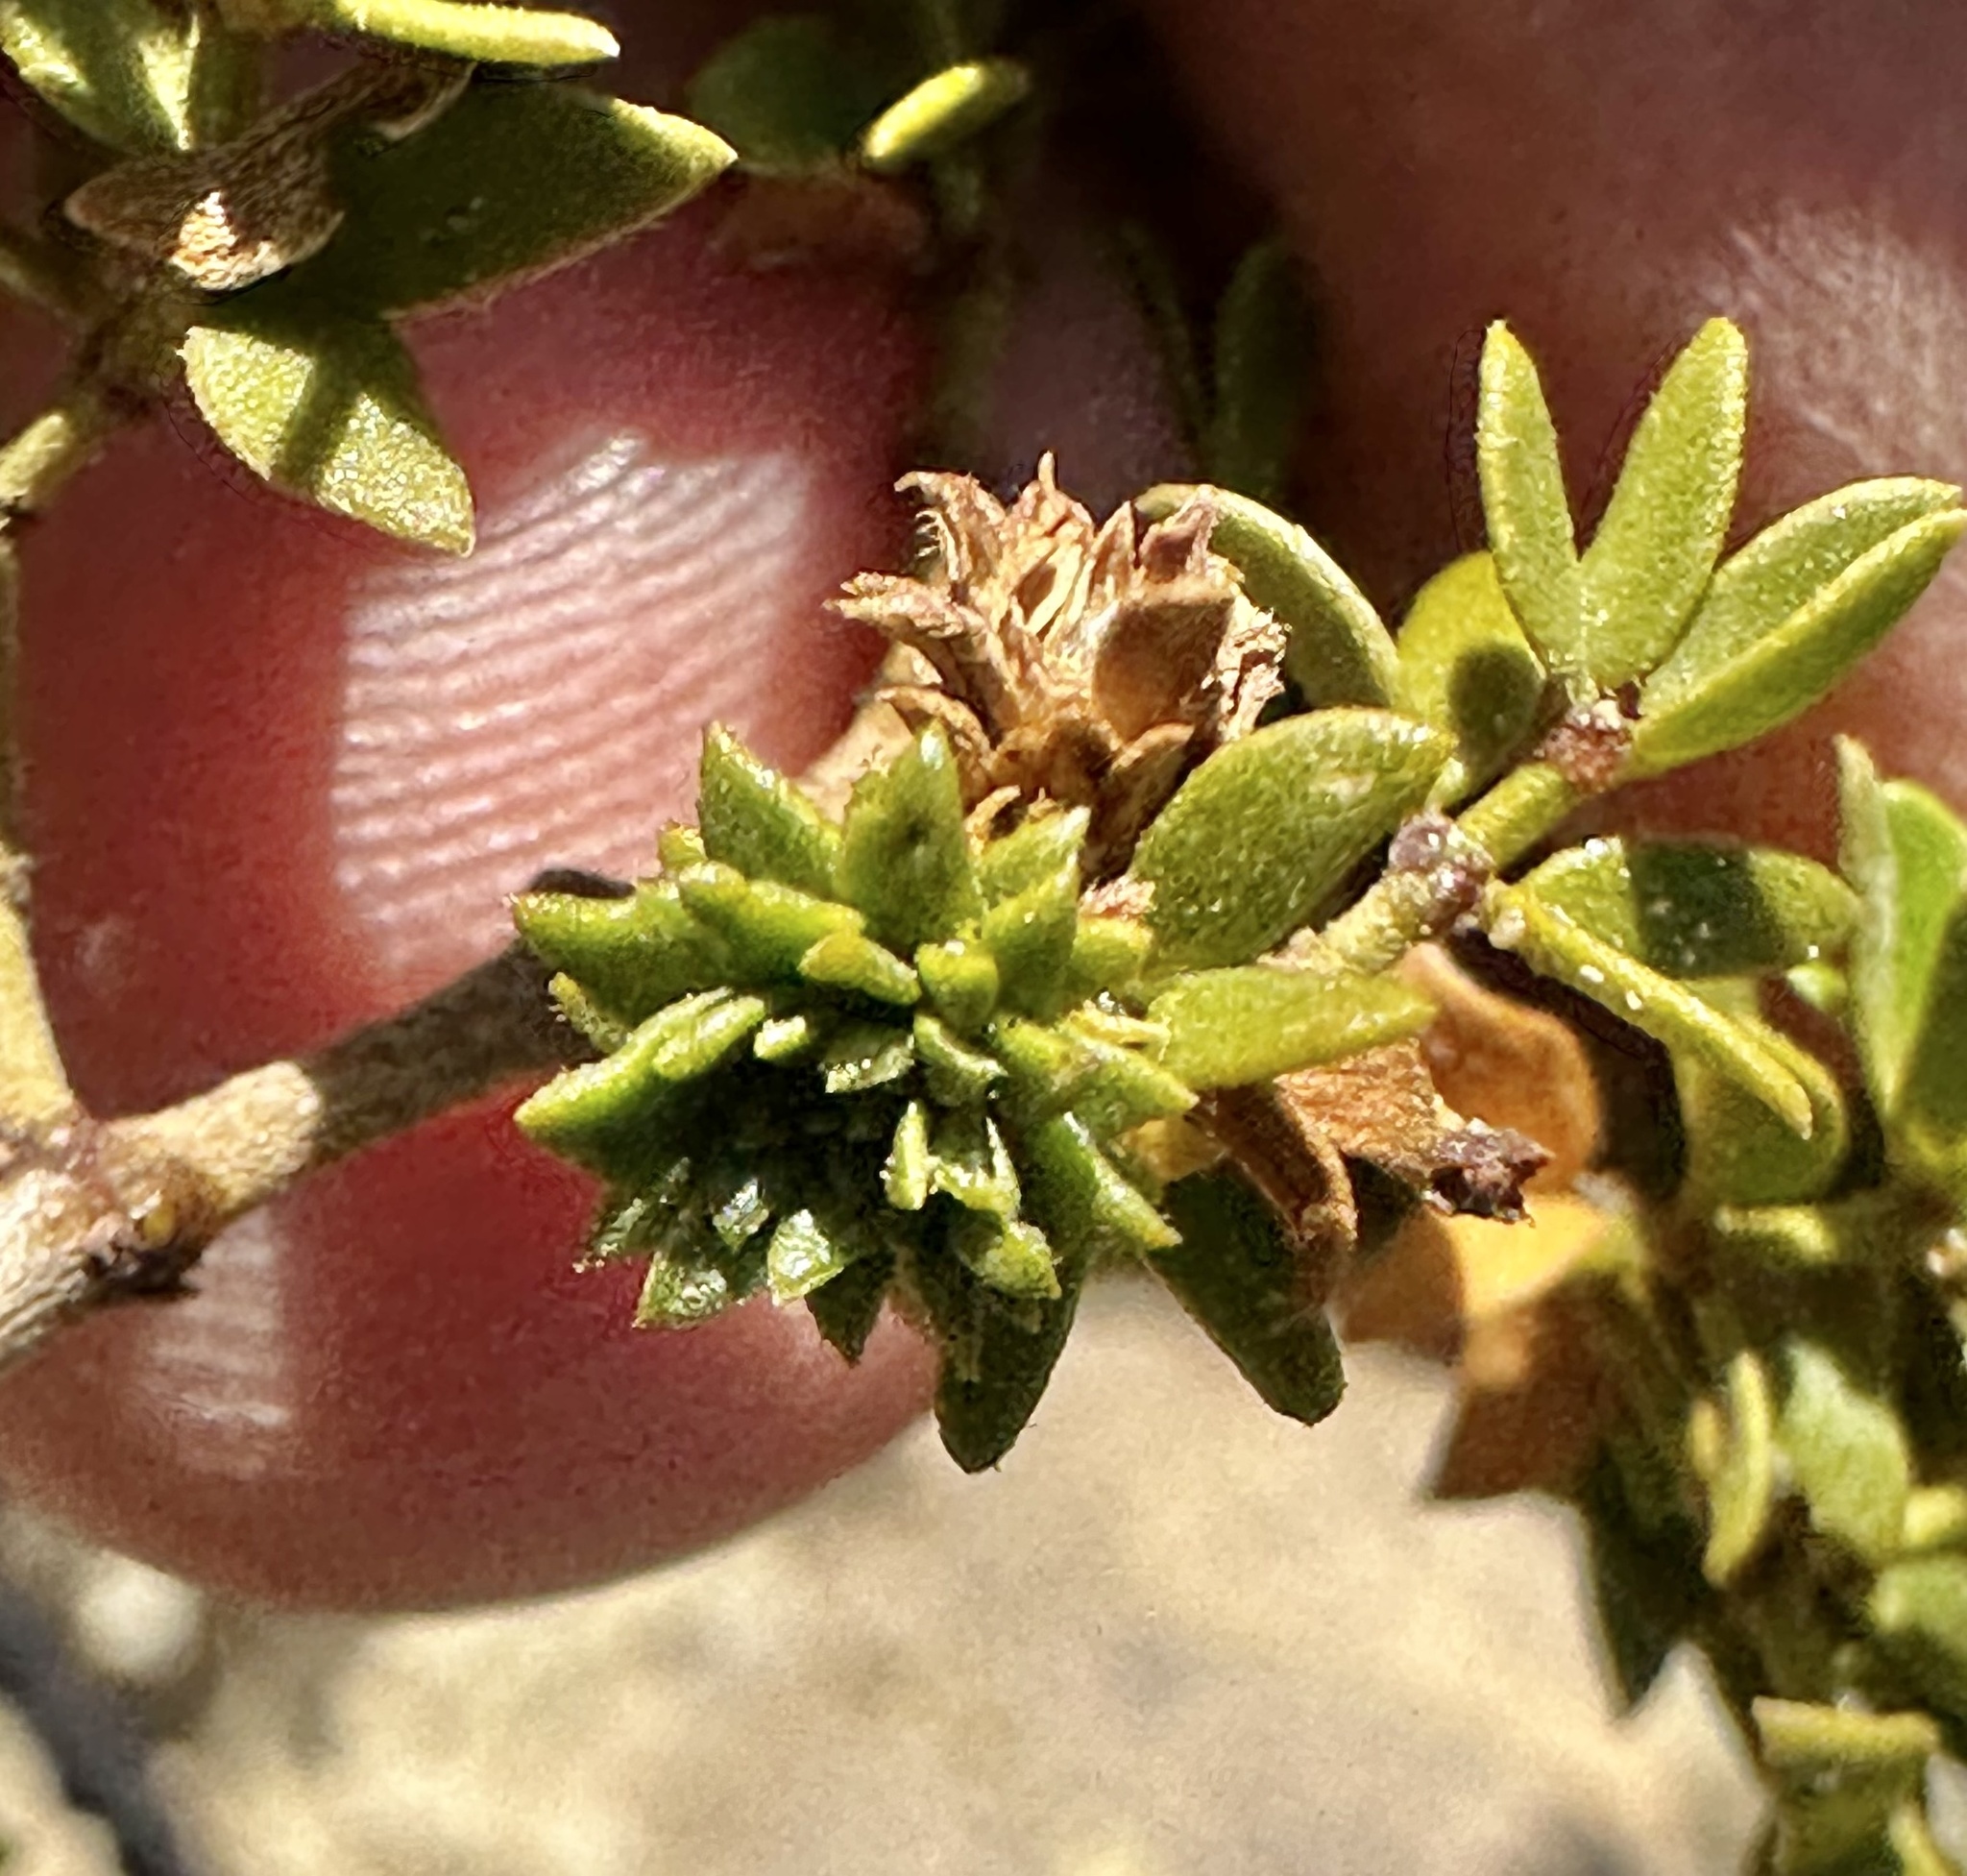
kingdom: Animalia
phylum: Arthropoda
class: Insecta
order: Diptera
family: Cecidomyiidae
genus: Asphondylia
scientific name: Asphondylia rosetta
